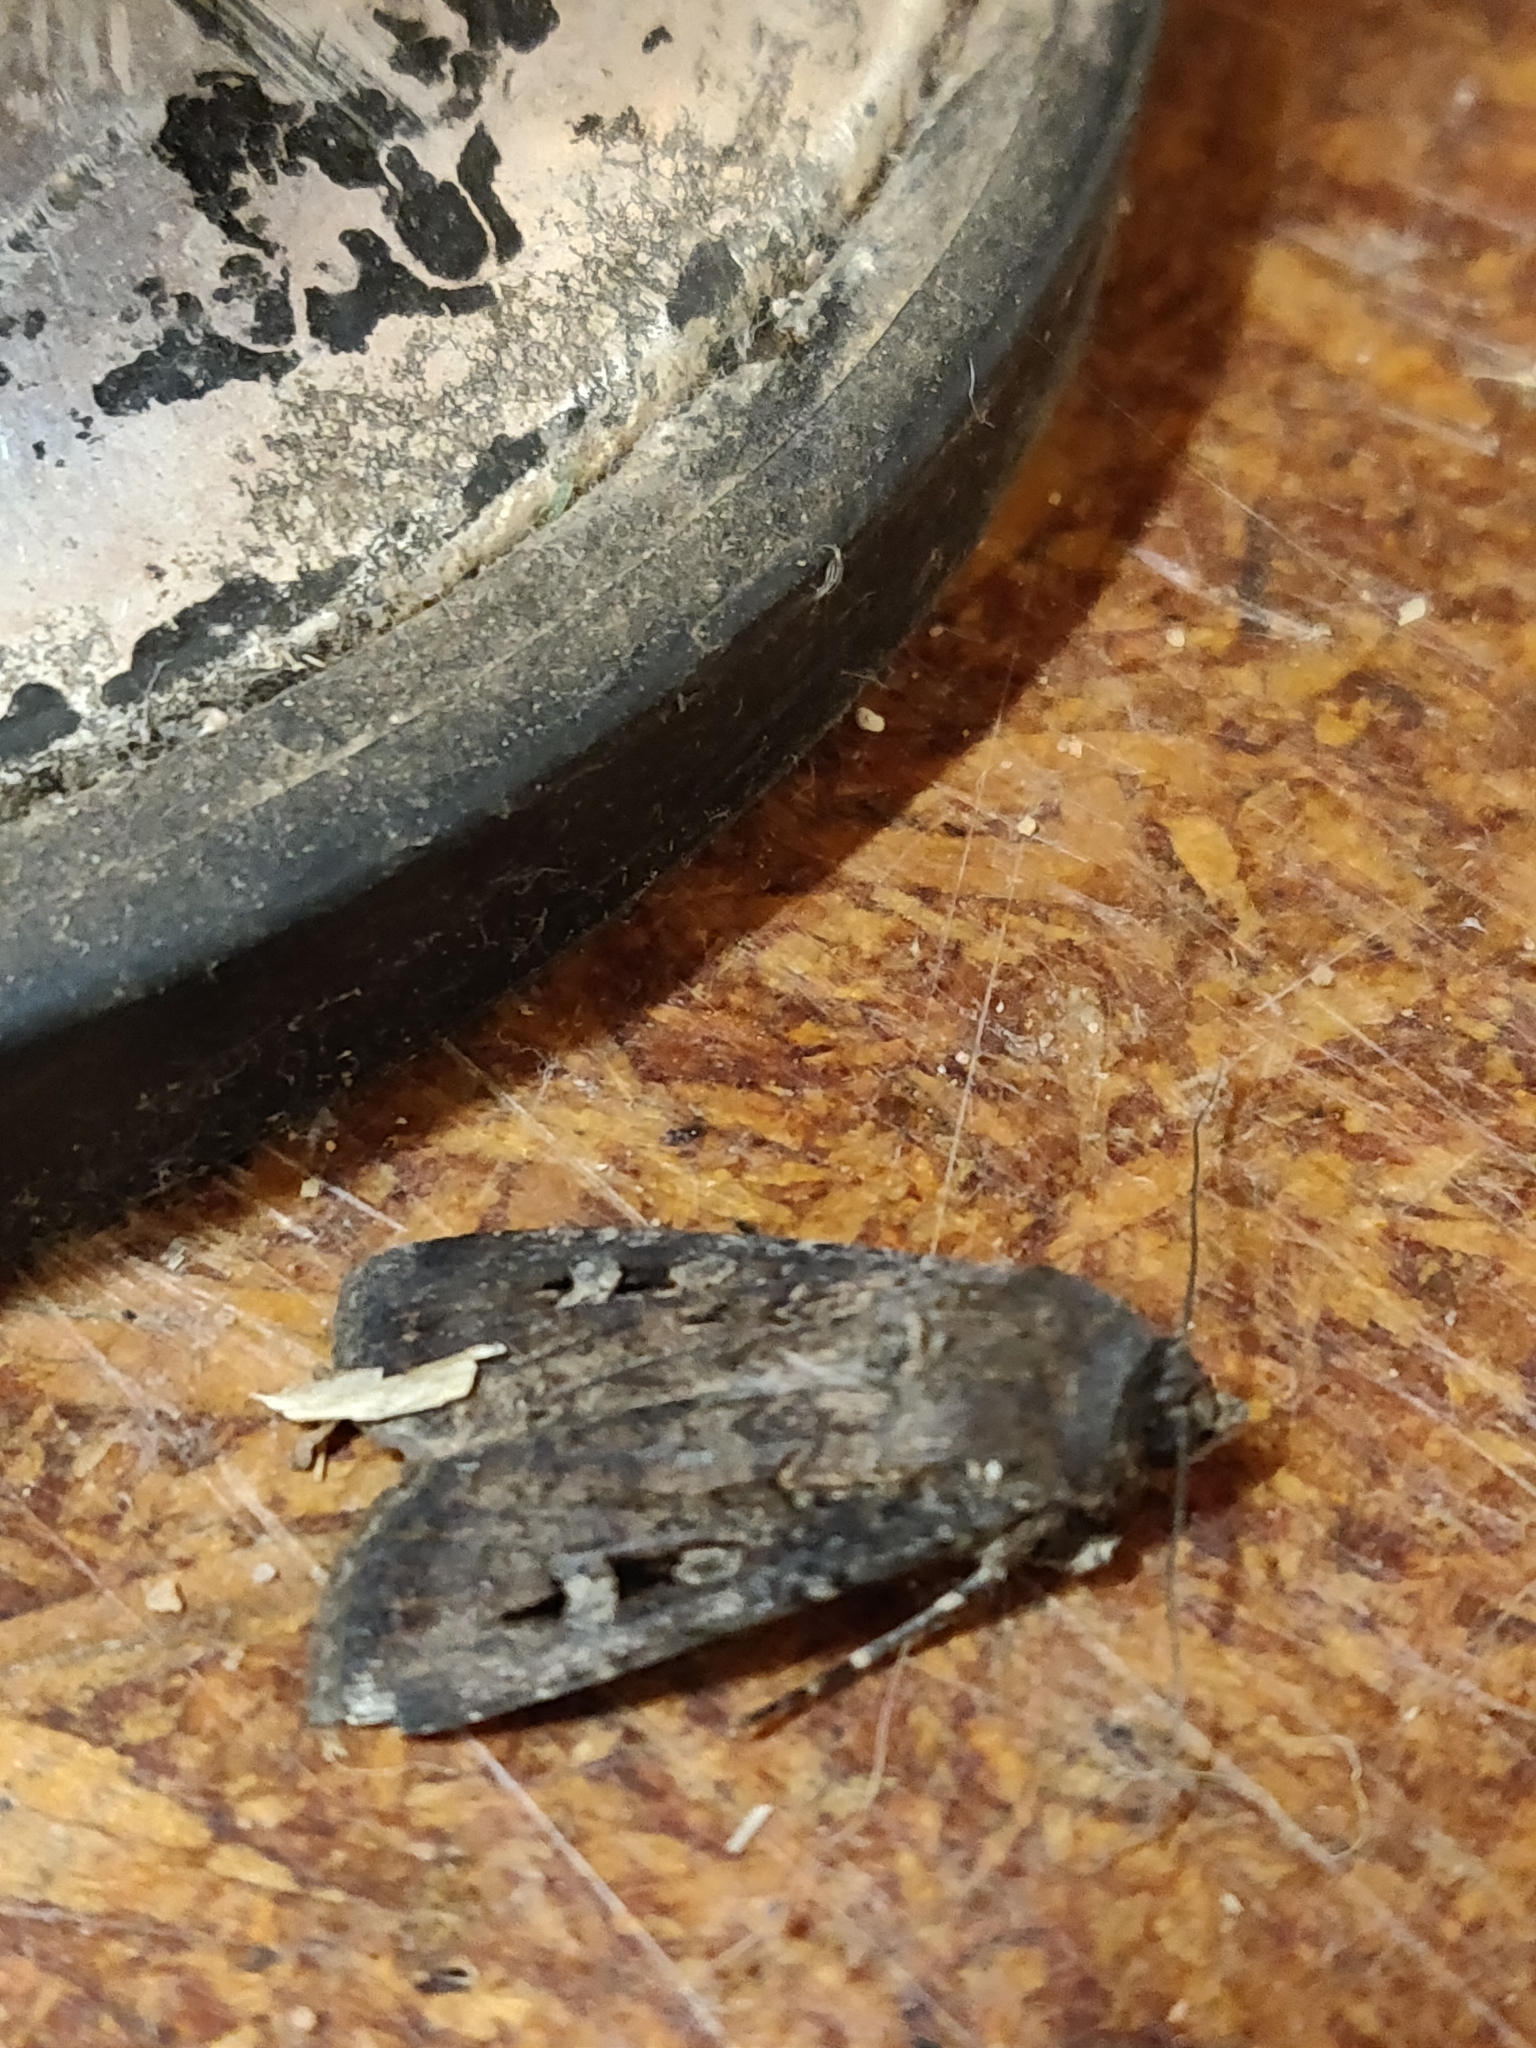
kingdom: Animalia
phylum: Arthropoda
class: Insecta
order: Lepidoptera
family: Noctuidae
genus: Agrotis
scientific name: Agrotis infusa
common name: Bogong moth
